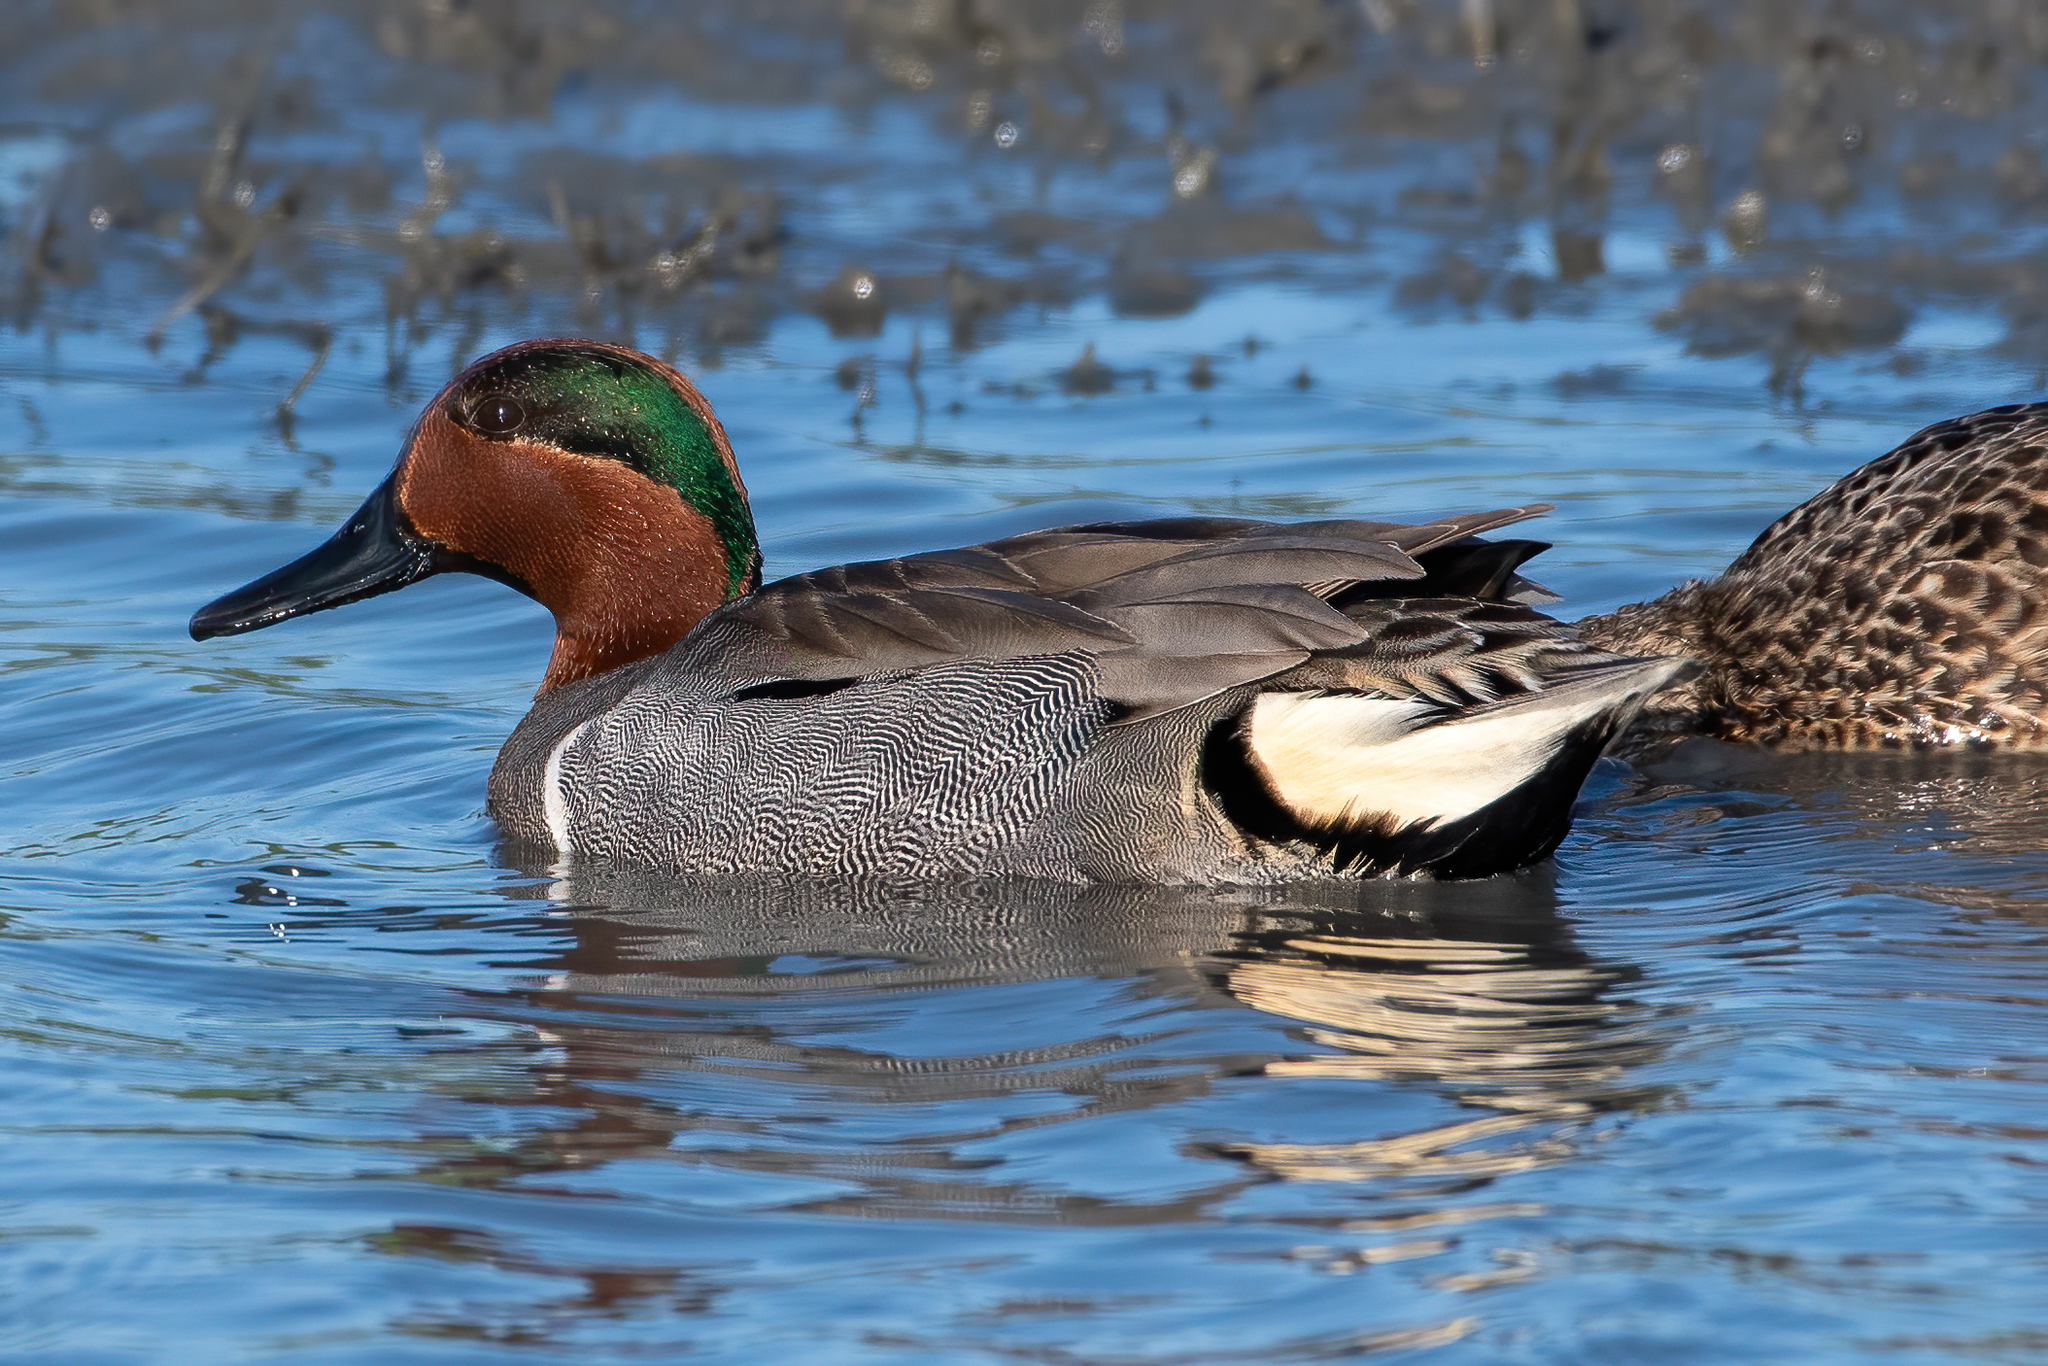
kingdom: Animalia
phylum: Chordata
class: Aves
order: Anseriformes
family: Anatidae
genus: Anas
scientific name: Anas crecca
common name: Eurasian teal
